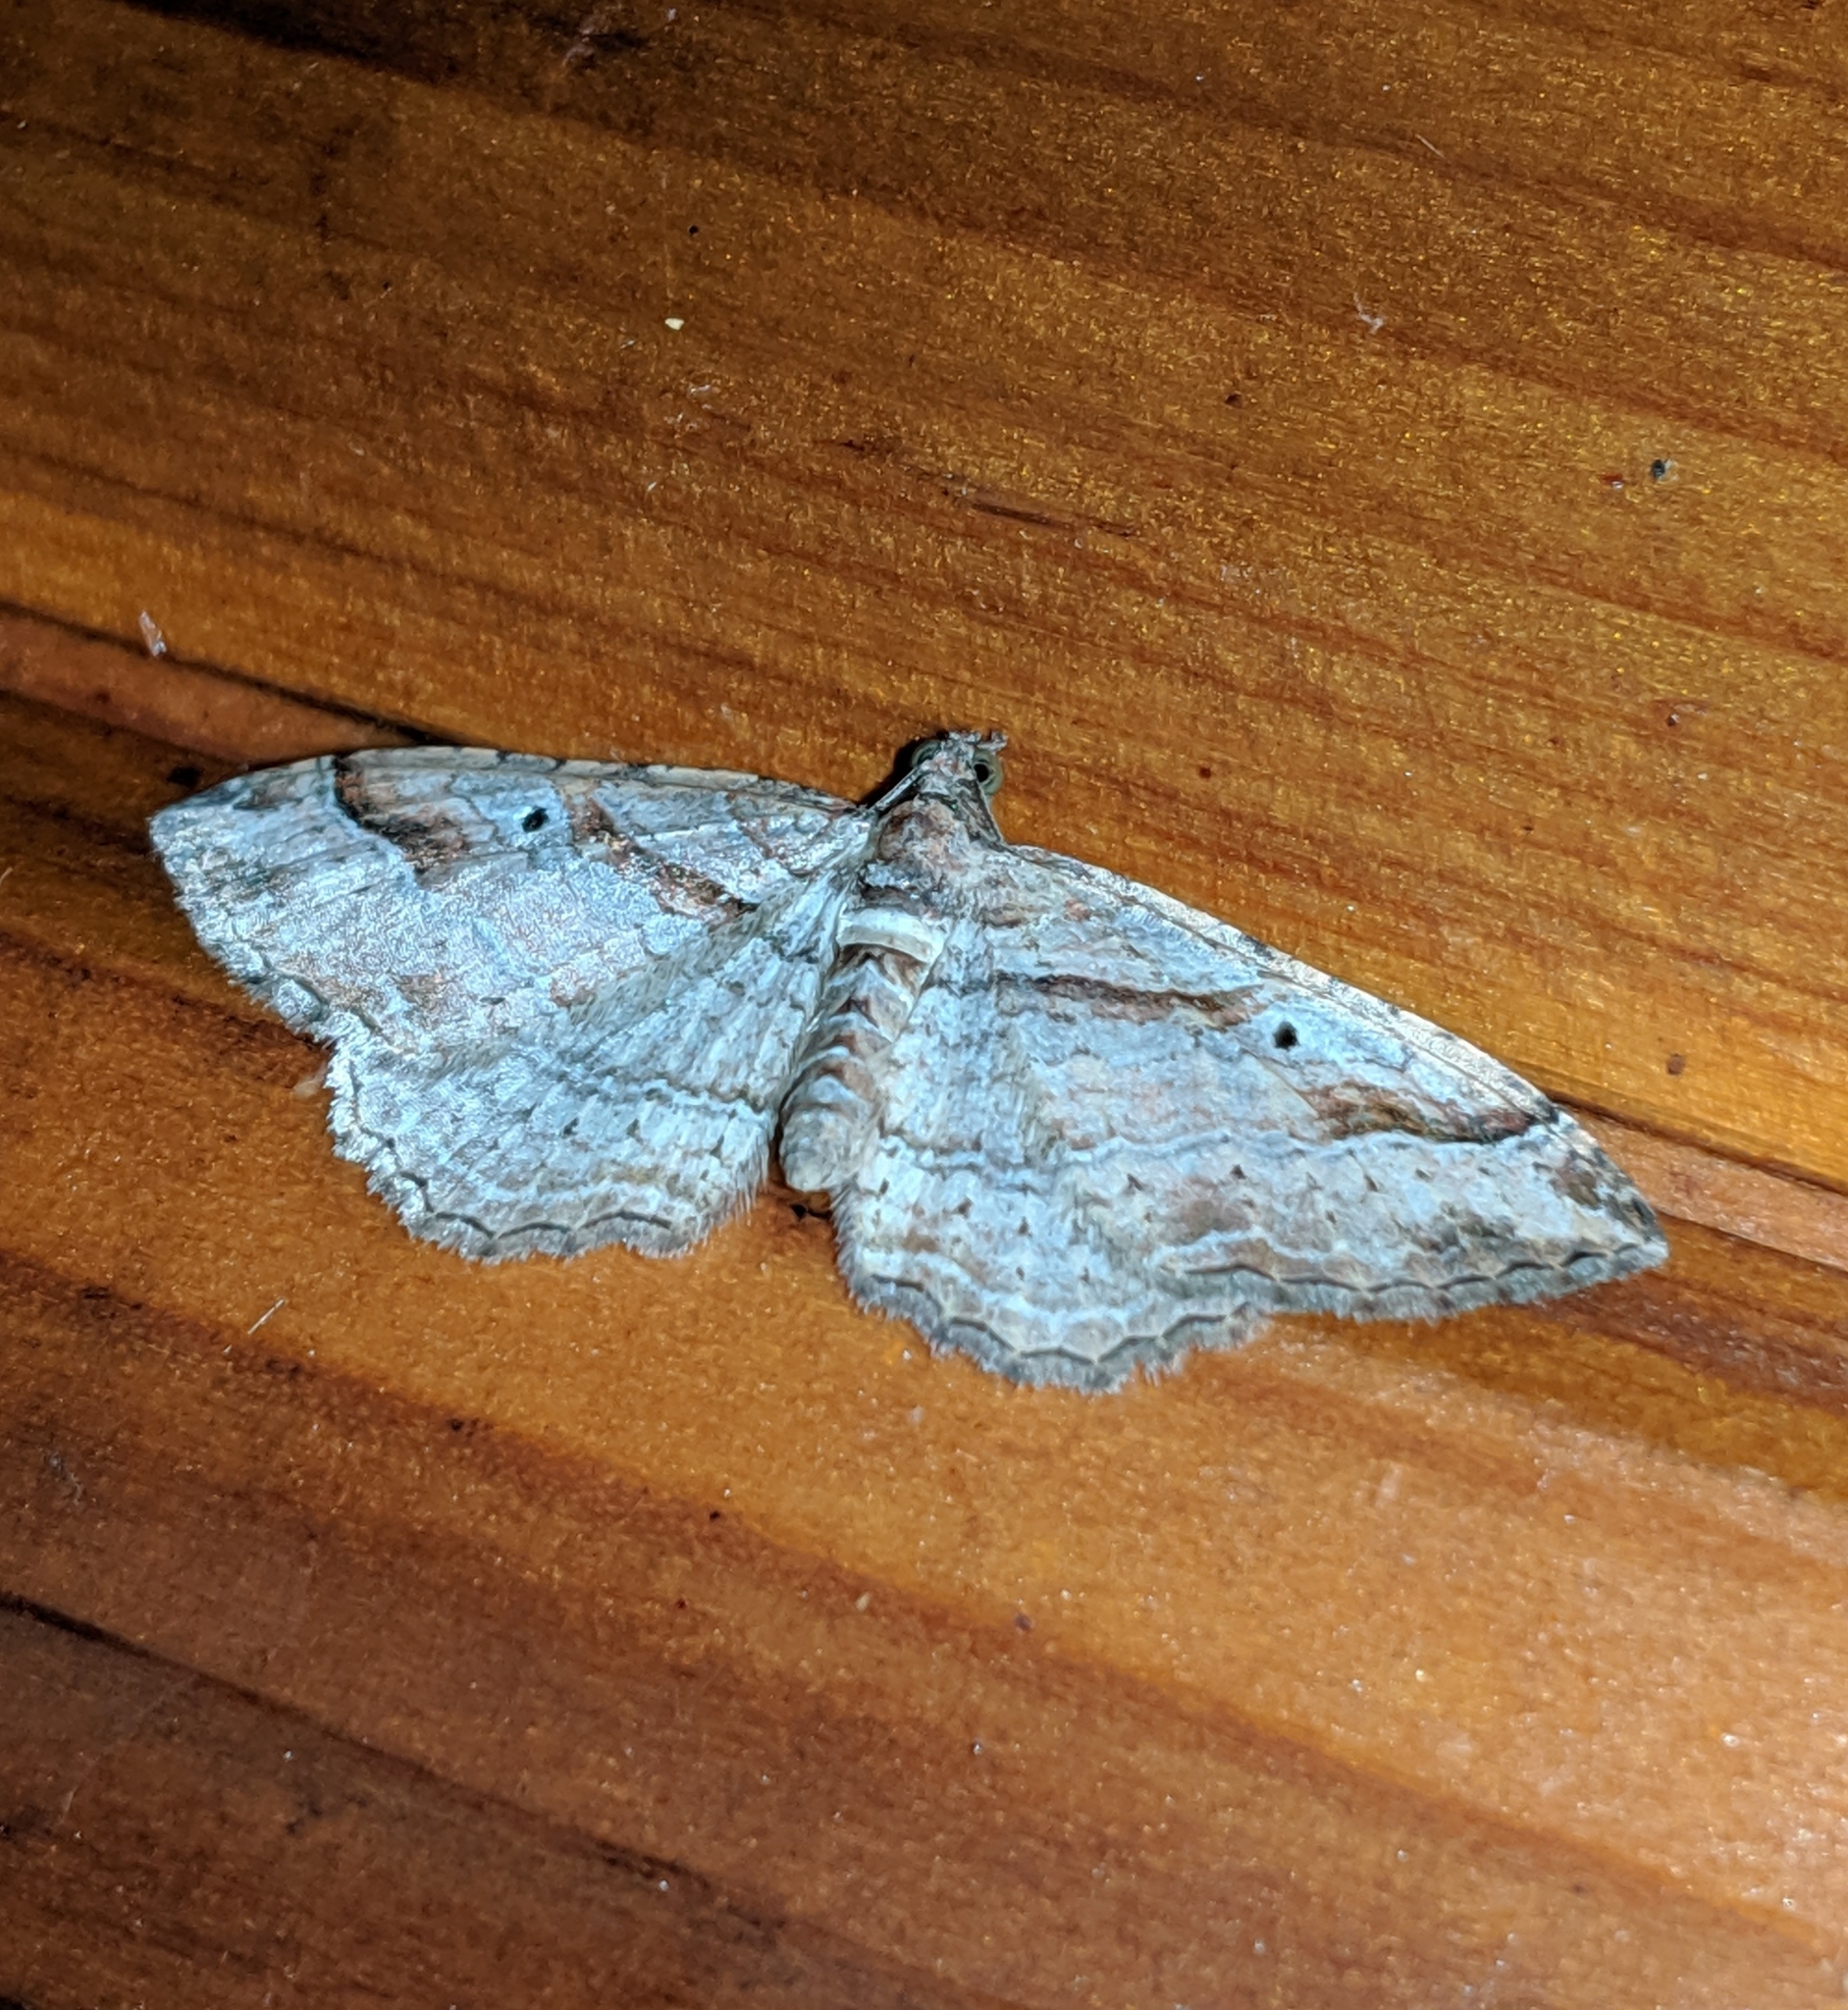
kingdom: Animalia
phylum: Arthropoda
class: Insecta
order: Lepidoptera
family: Geometridae
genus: Costaconvexa
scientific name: Costaconvexa centrostrigaria
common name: Bent-line carpet
